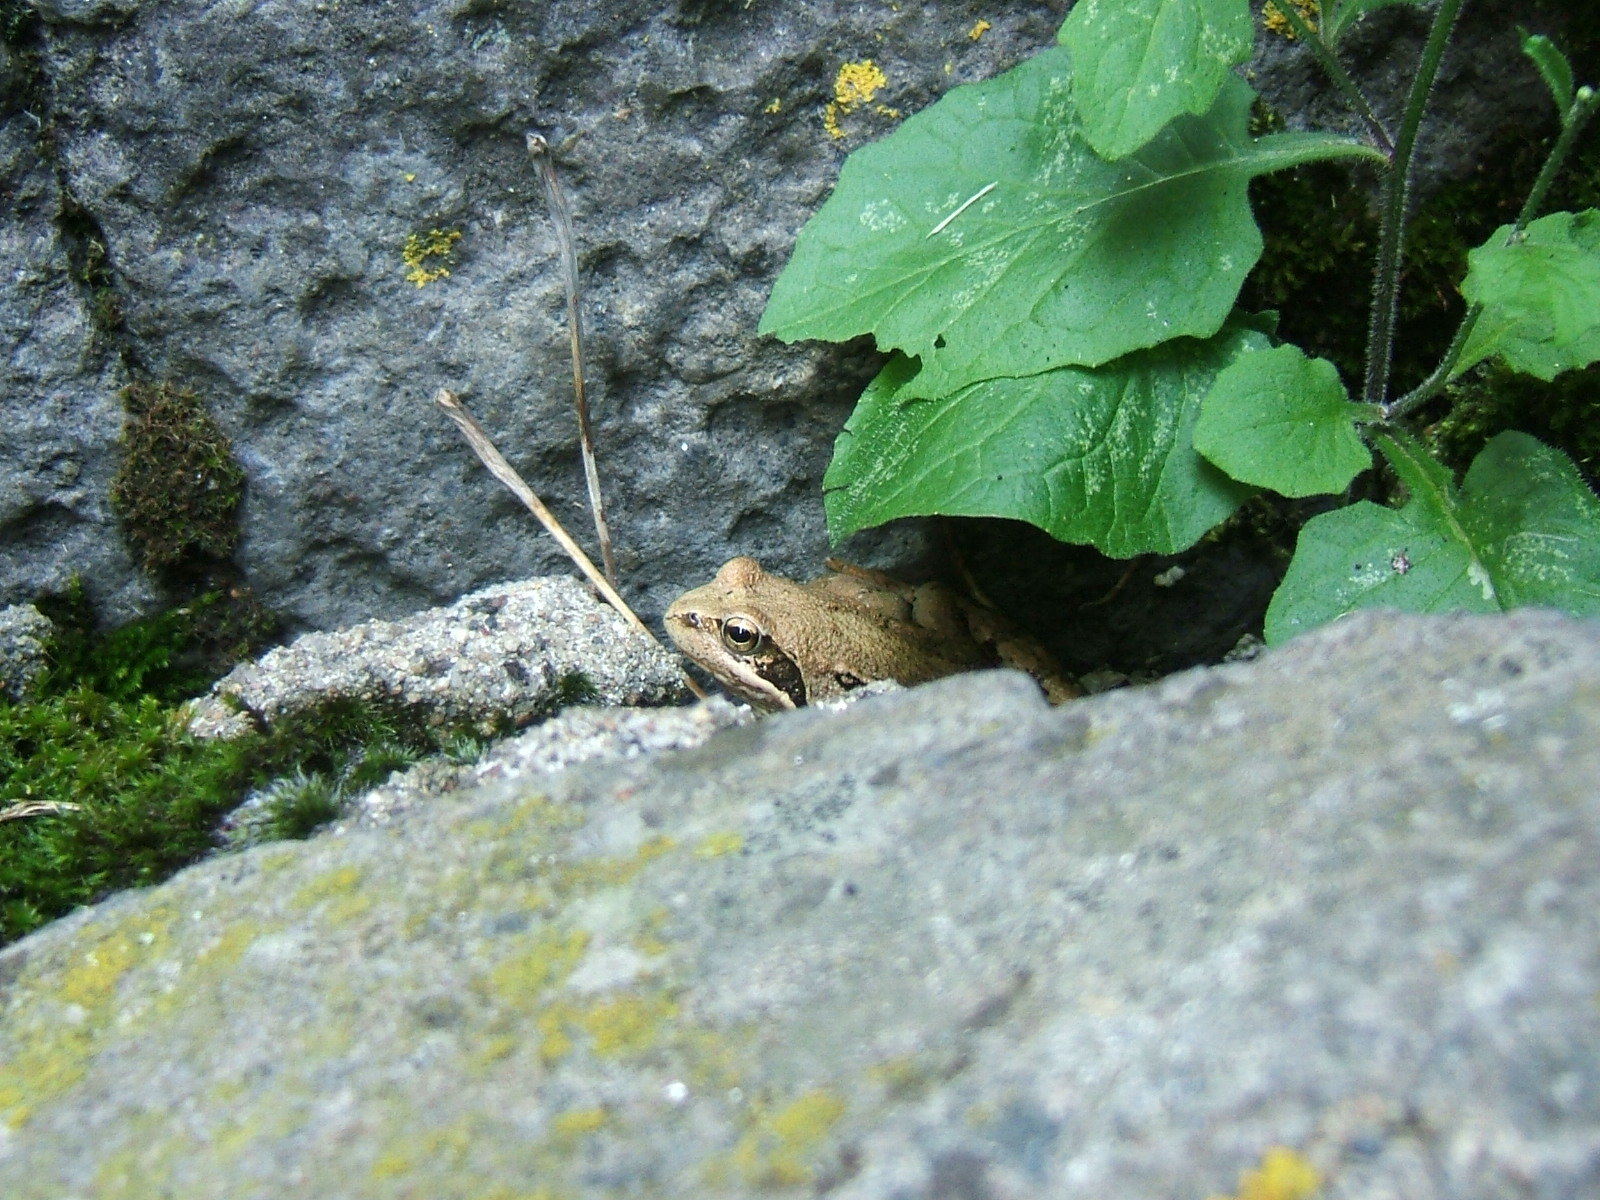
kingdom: Animalia
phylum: Chordata
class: Amphibia
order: Anura
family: Ranidae
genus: Rana
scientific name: Rana temporaria
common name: Common frog
